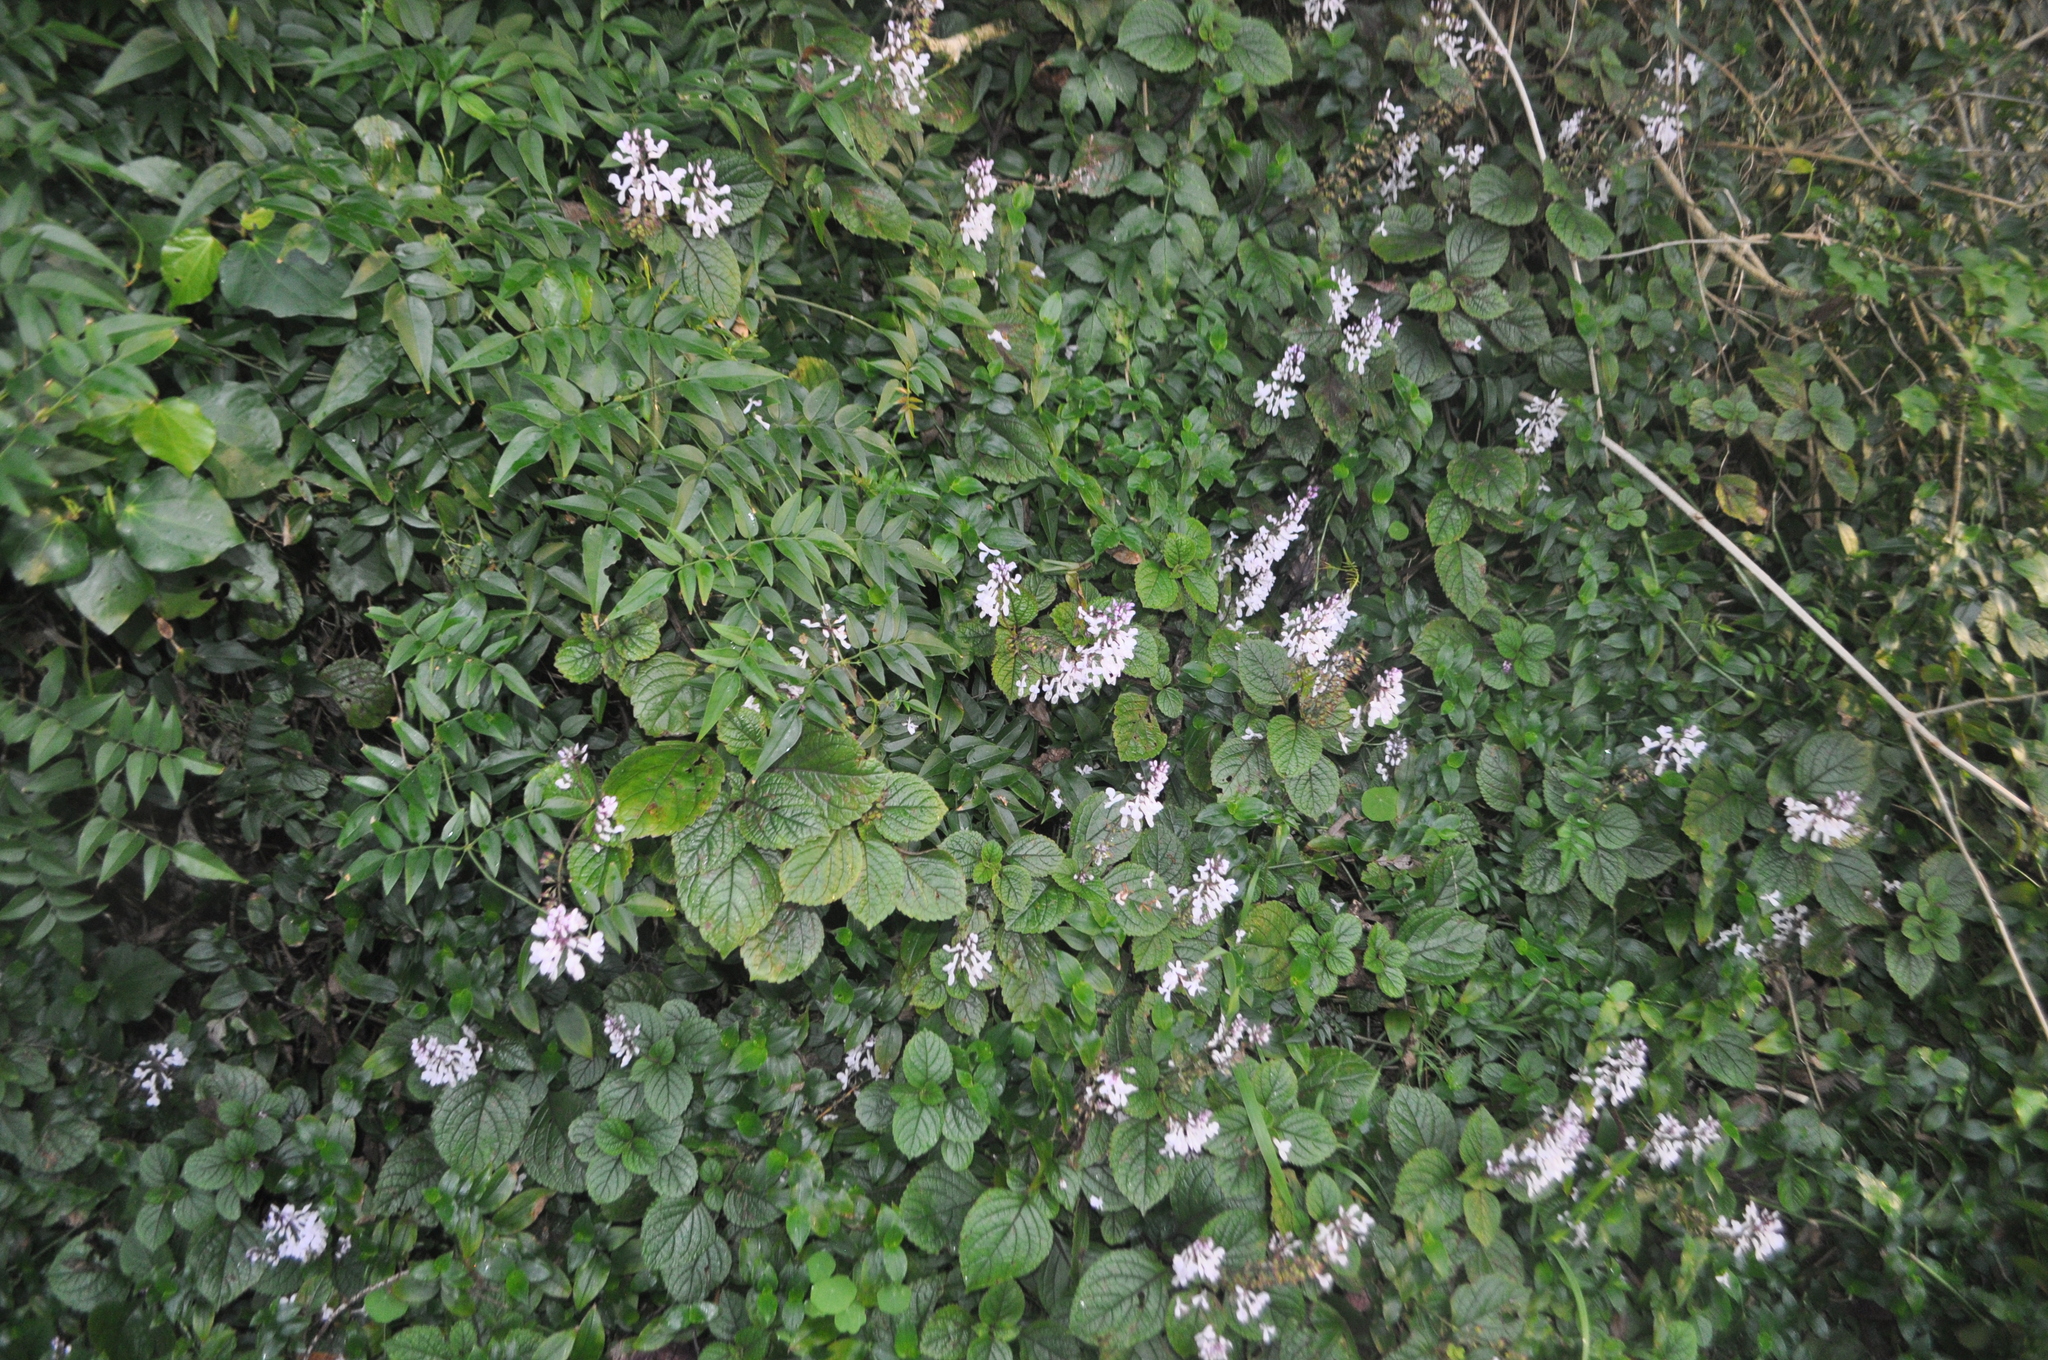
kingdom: Plantae
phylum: Tracheophyta
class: Magnoliopsida
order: Lamiales
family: Oleaceae
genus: Jasminum
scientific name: Jasminum polyanthum
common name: Pink jasmine
